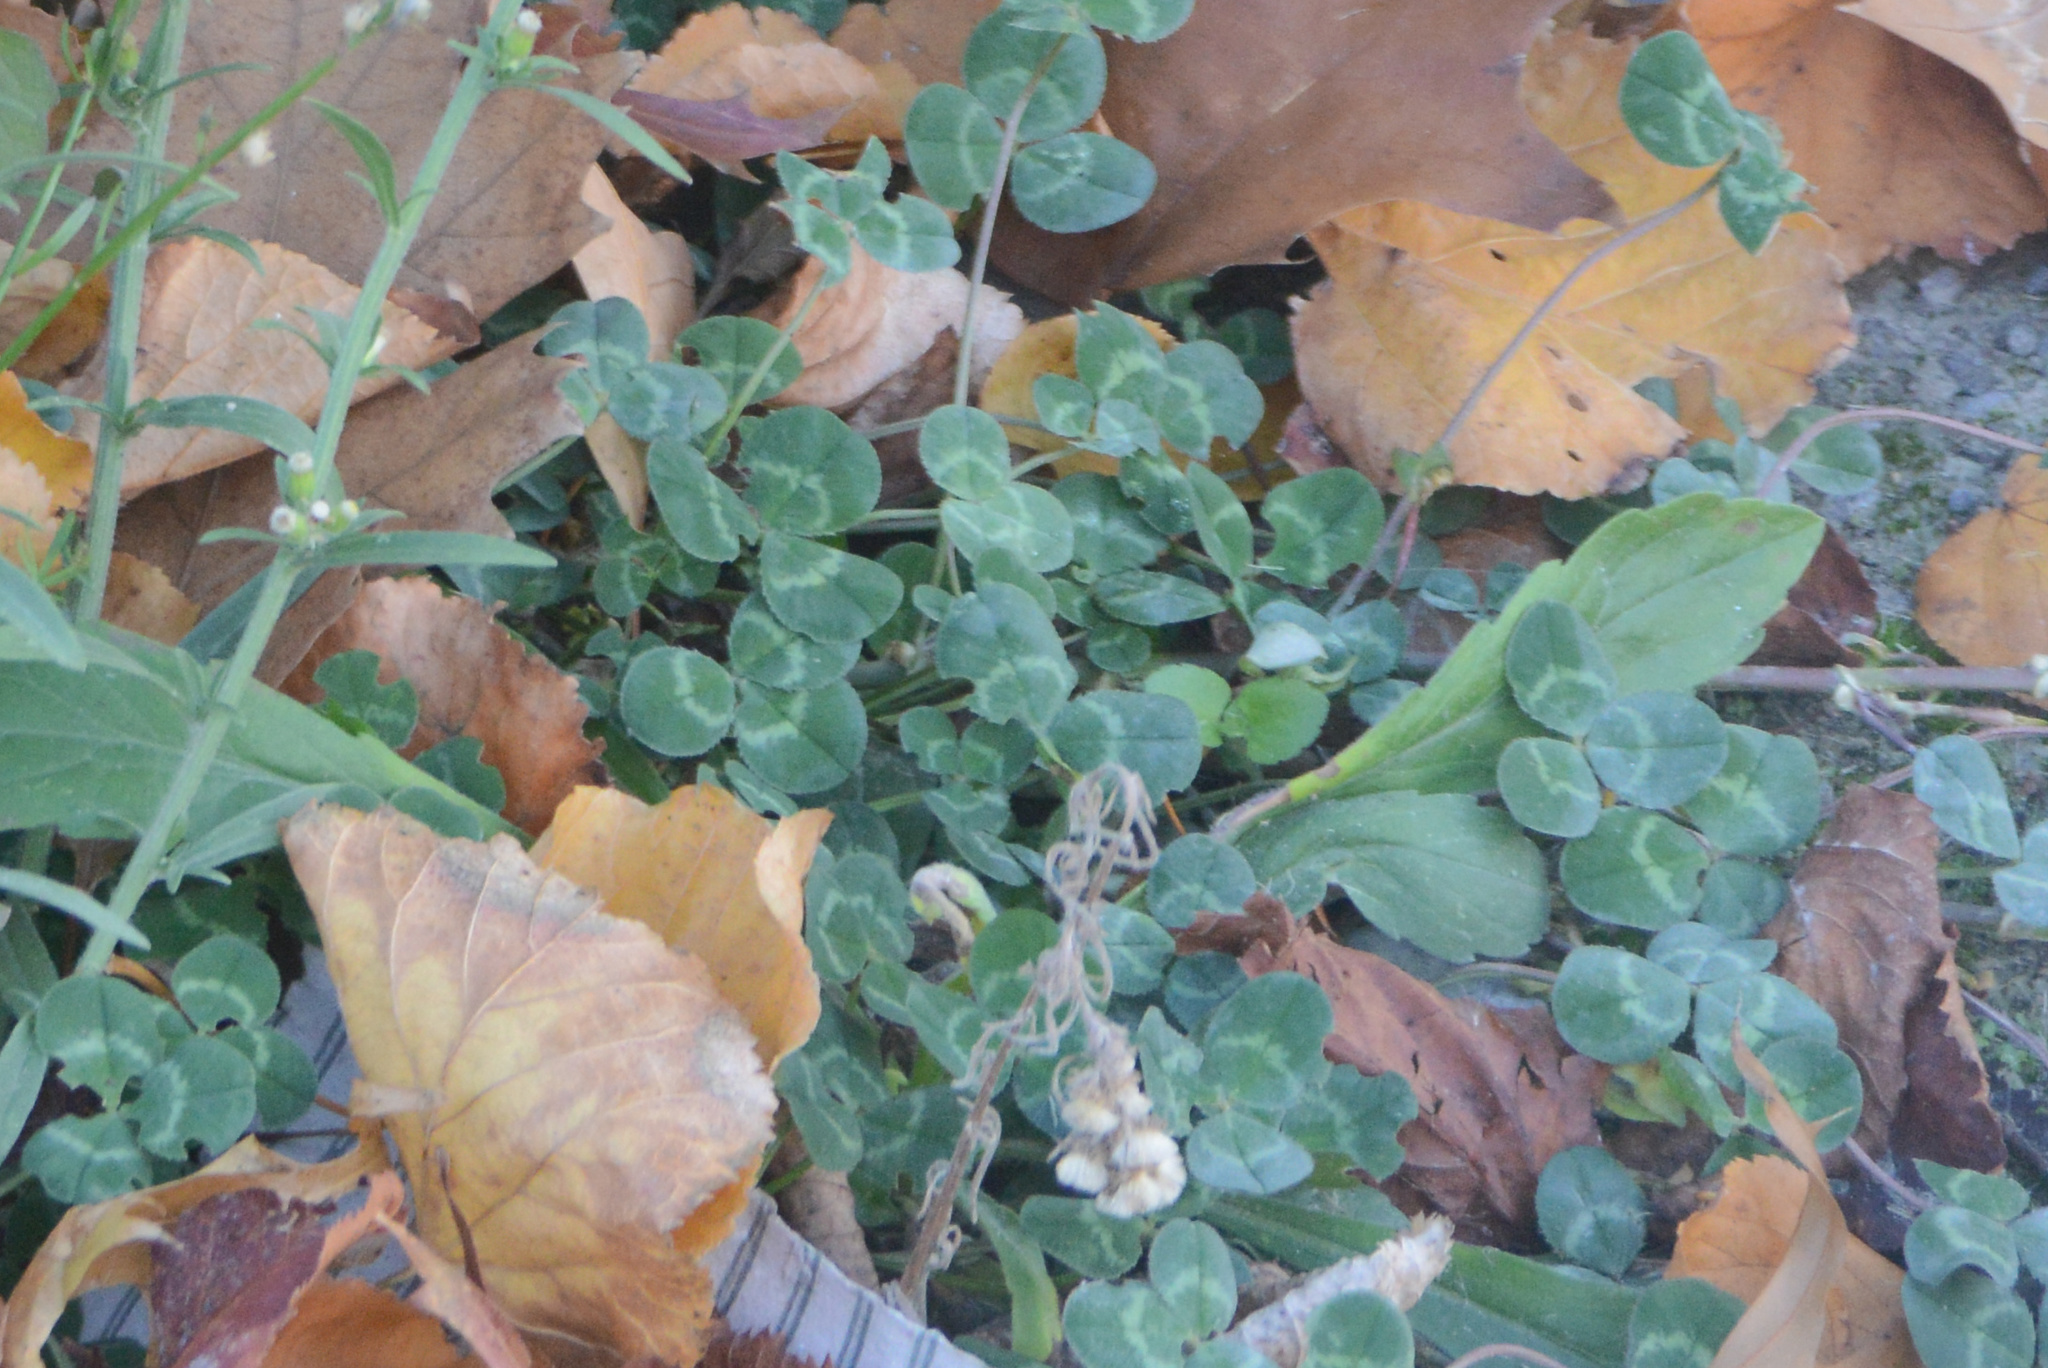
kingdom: Plantae
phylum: Tracheophyta
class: Magnoliopsida
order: Fabales
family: Fabaceae
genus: Trifolium
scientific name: Trifolium repens
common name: White clover
